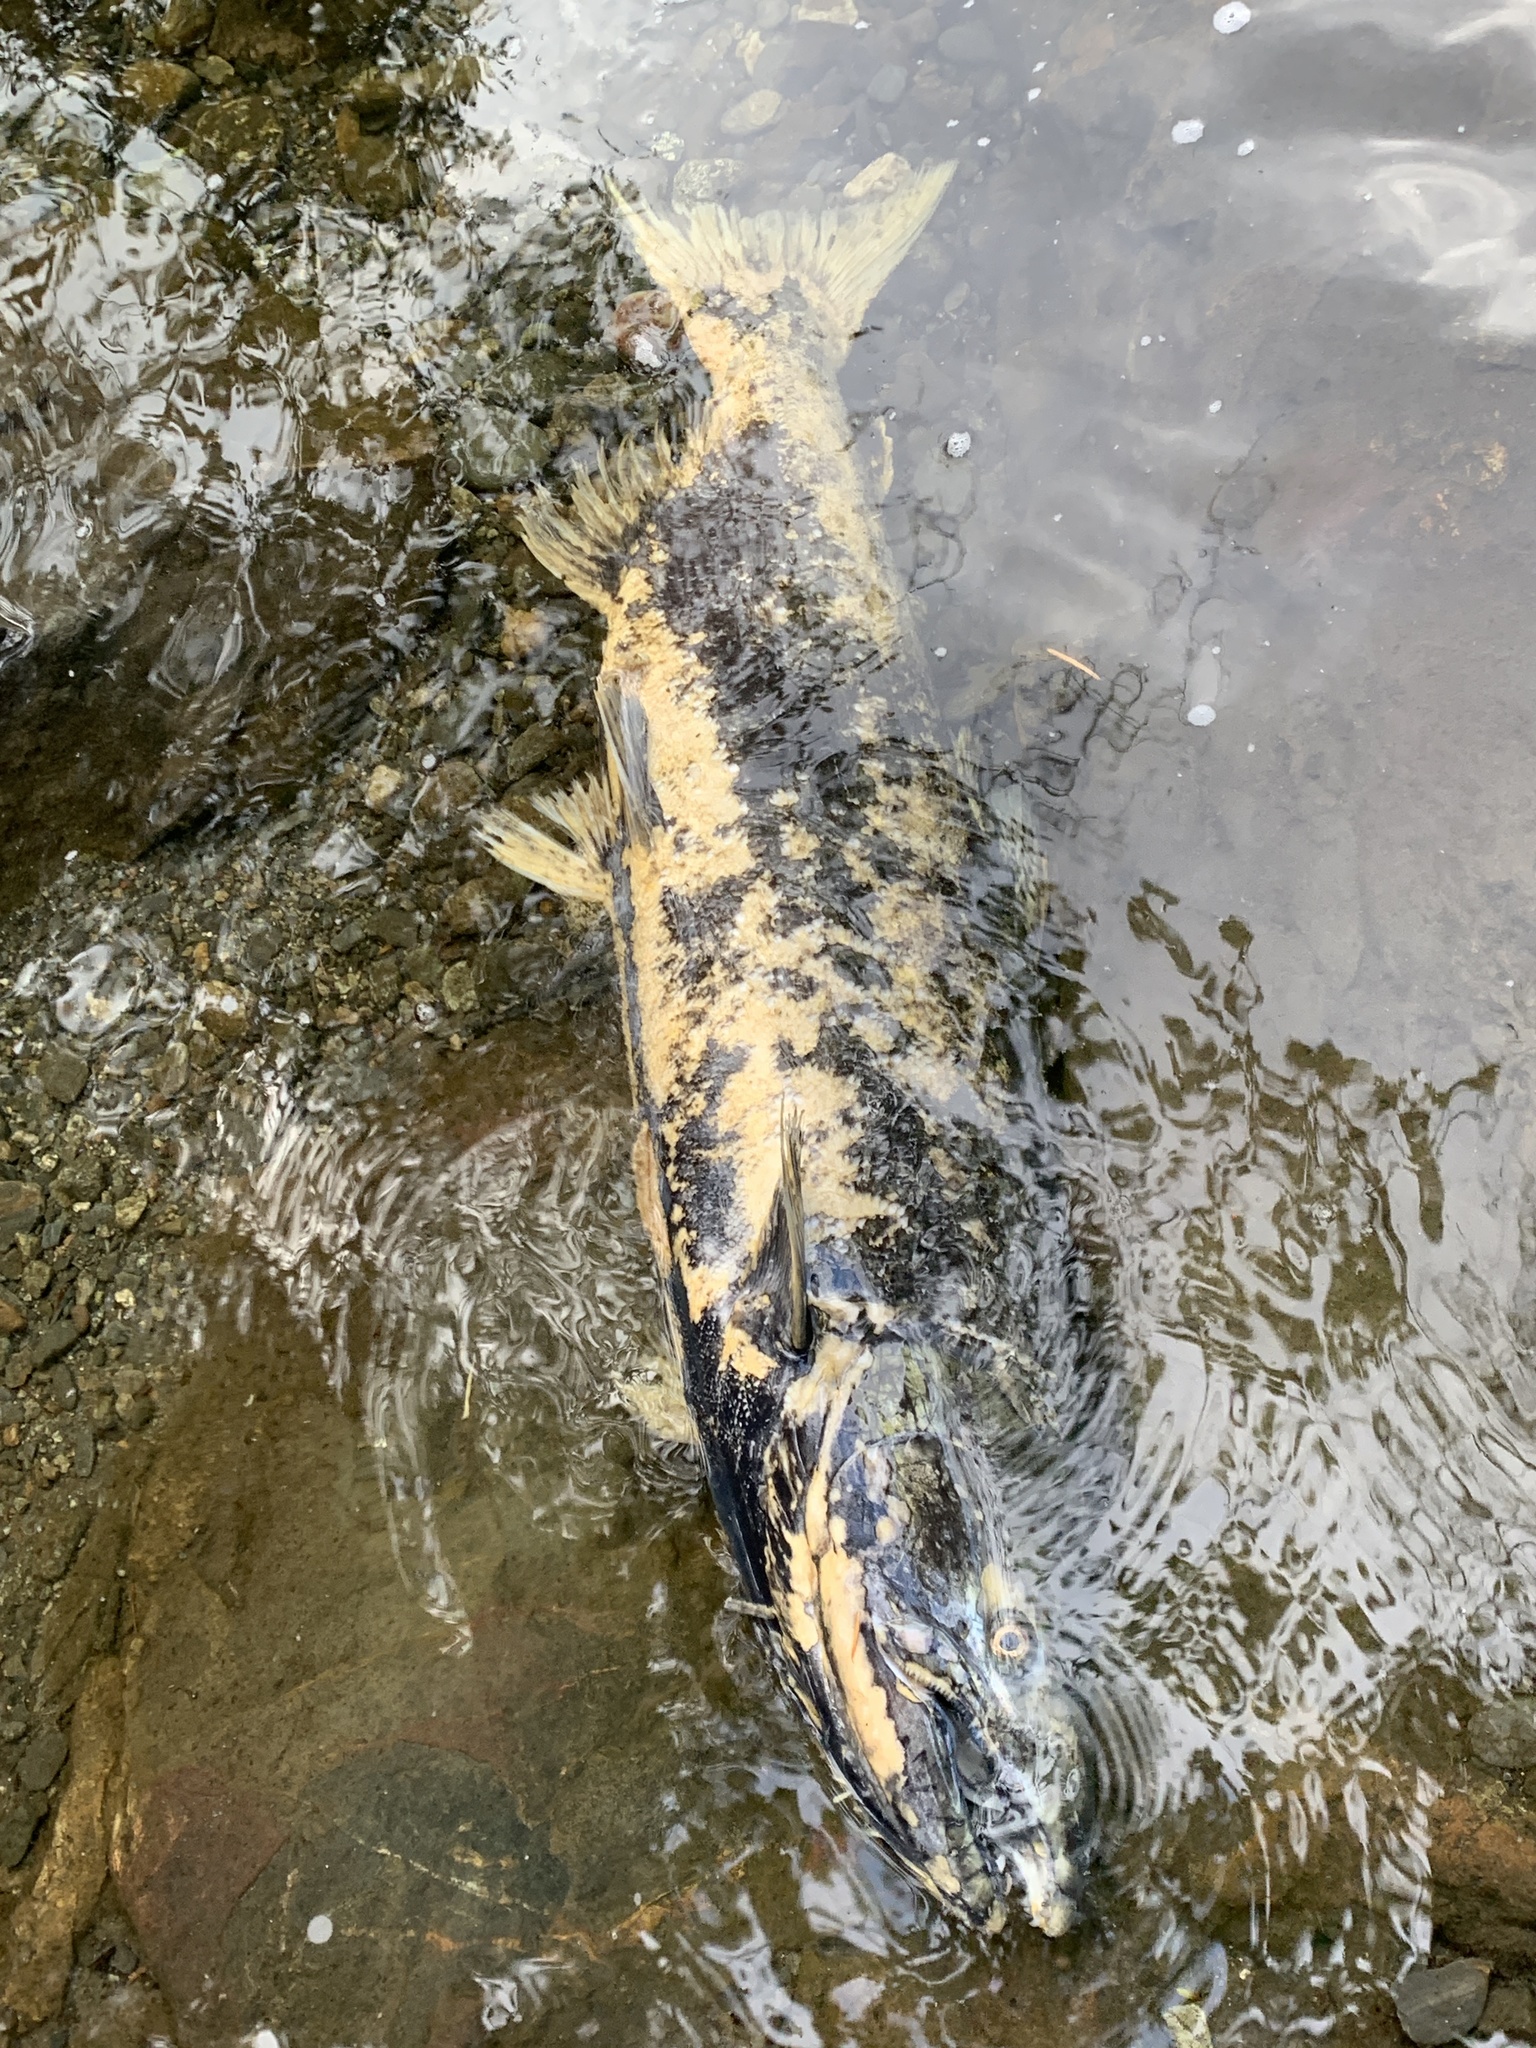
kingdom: Animalia
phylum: Chordata
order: Salmoniformes
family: Salmonidae
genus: Oncorhynchus
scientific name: Oncorhynchus tshawytscha
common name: Chinook salmon
